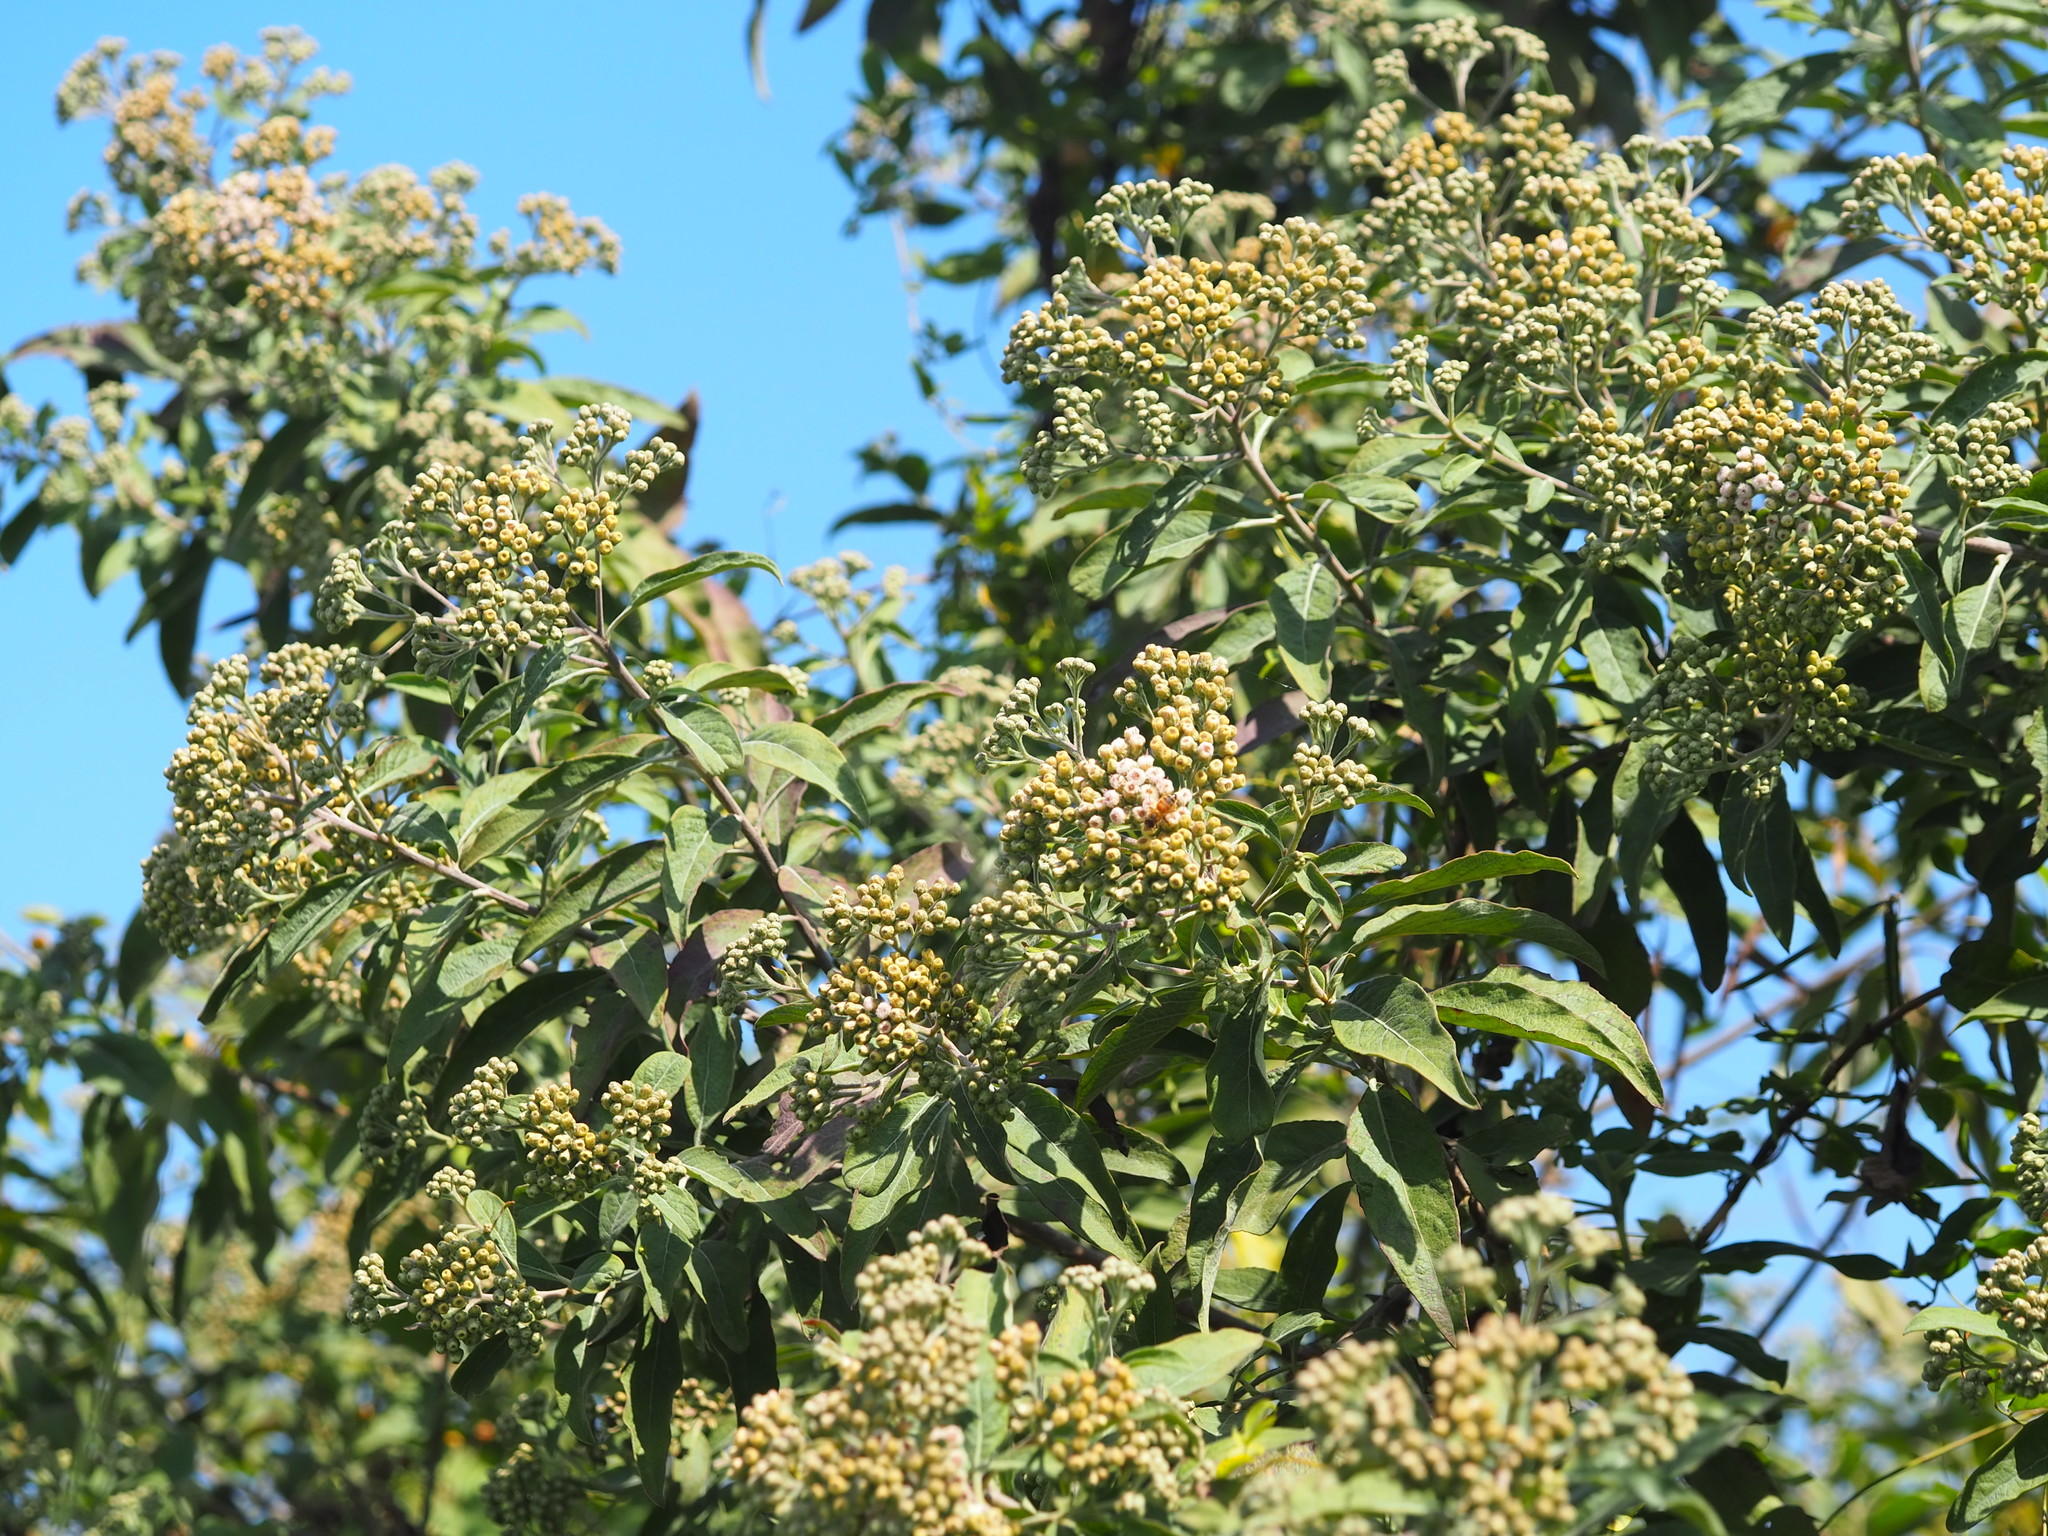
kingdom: Plantae
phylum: Tracheophyta
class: Magnoliopsida
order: Asterales
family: Asteraceae
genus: Pluchea
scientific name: Pluchea carolinensis
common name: Marsh fleabane
